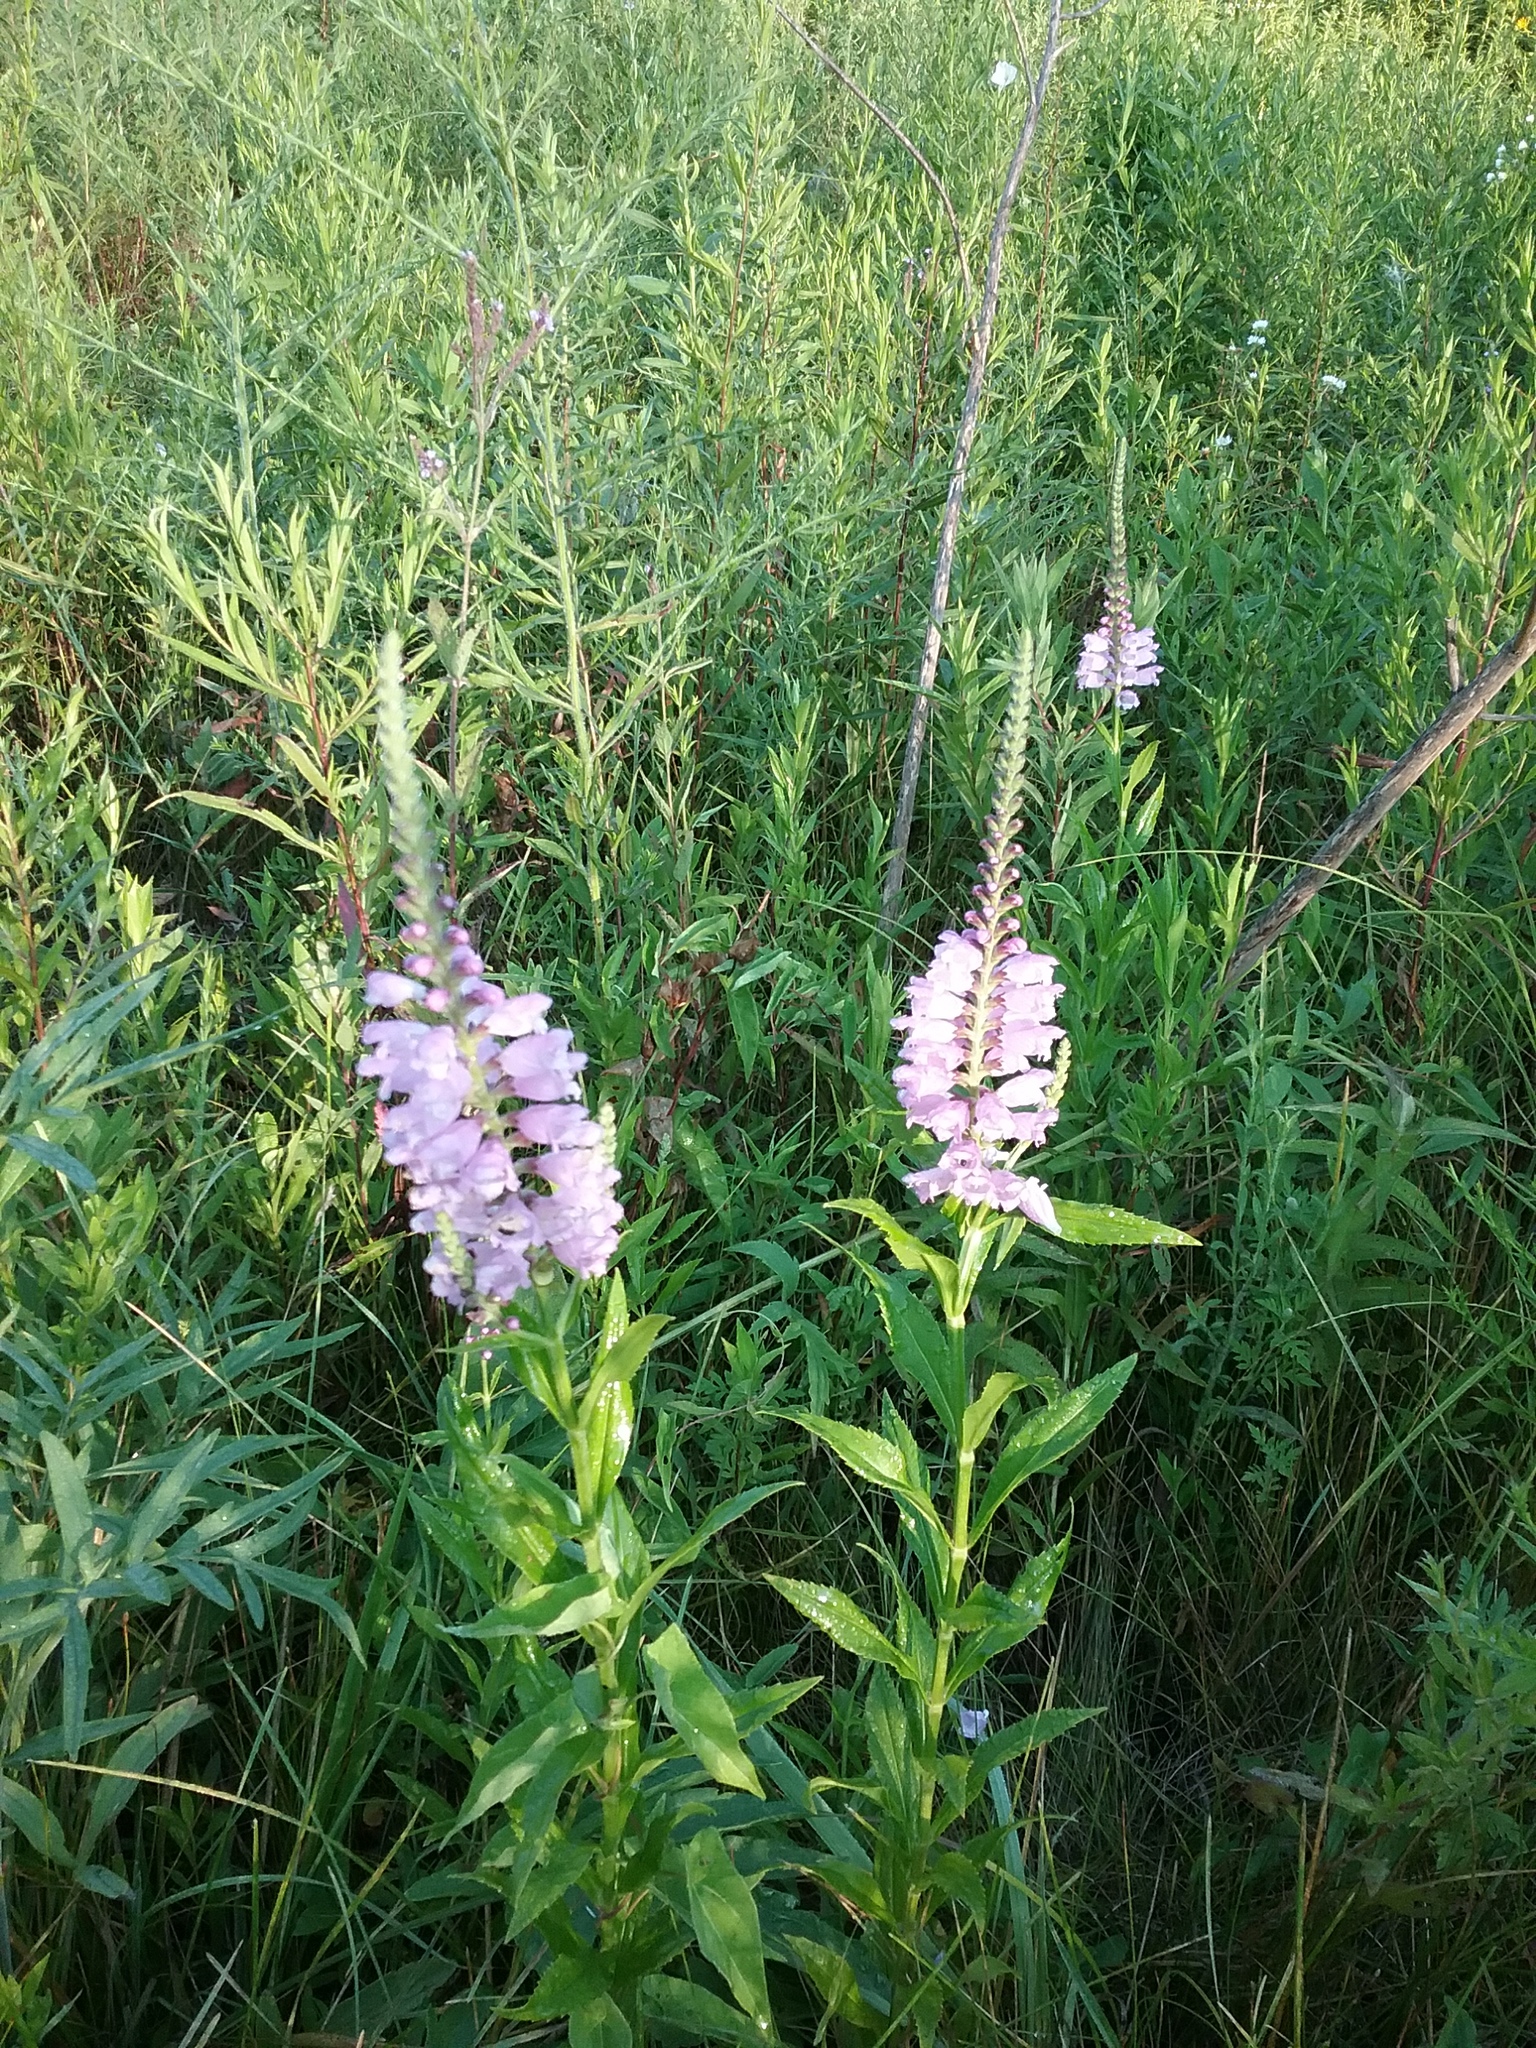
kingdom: Plantae
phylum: Tracheophyta
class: Magnoliopsida
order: Lamiales
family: Lamiaceae
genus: Physostegia
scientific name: Physostegia virginiana
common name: Obedient-plant
